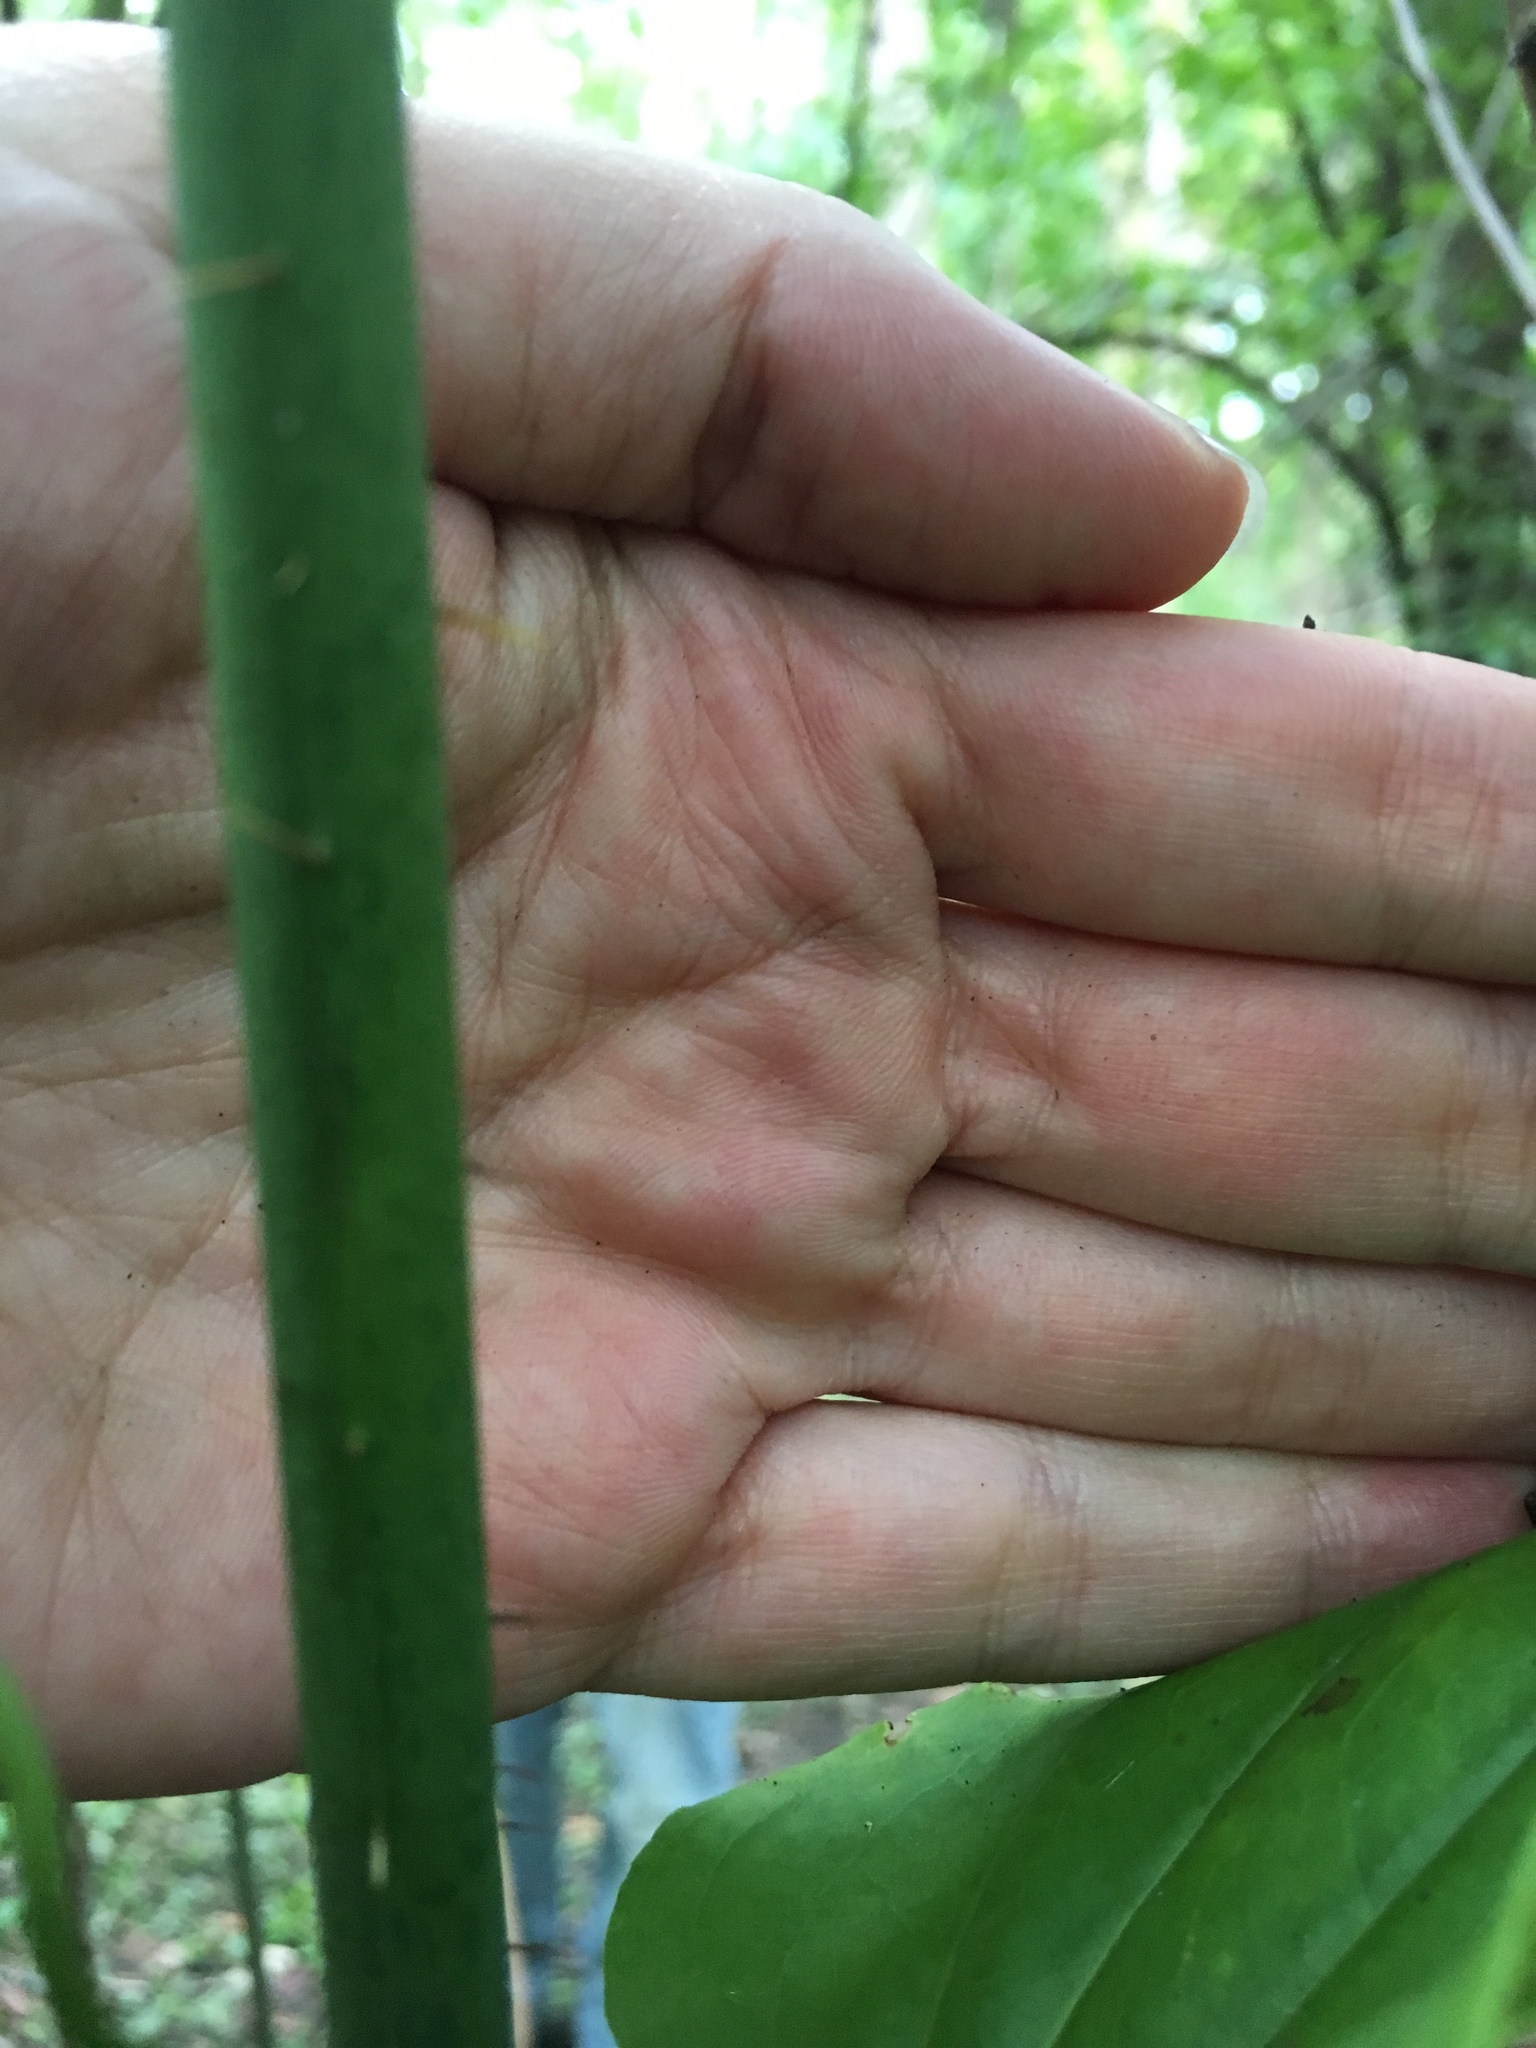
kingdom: Plantae
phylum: Tracheophyta
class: Liliopsida
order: Liliales
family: Smilacaceae
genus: Smilax
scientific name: Smilax tamnoides
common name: Hellfetter
